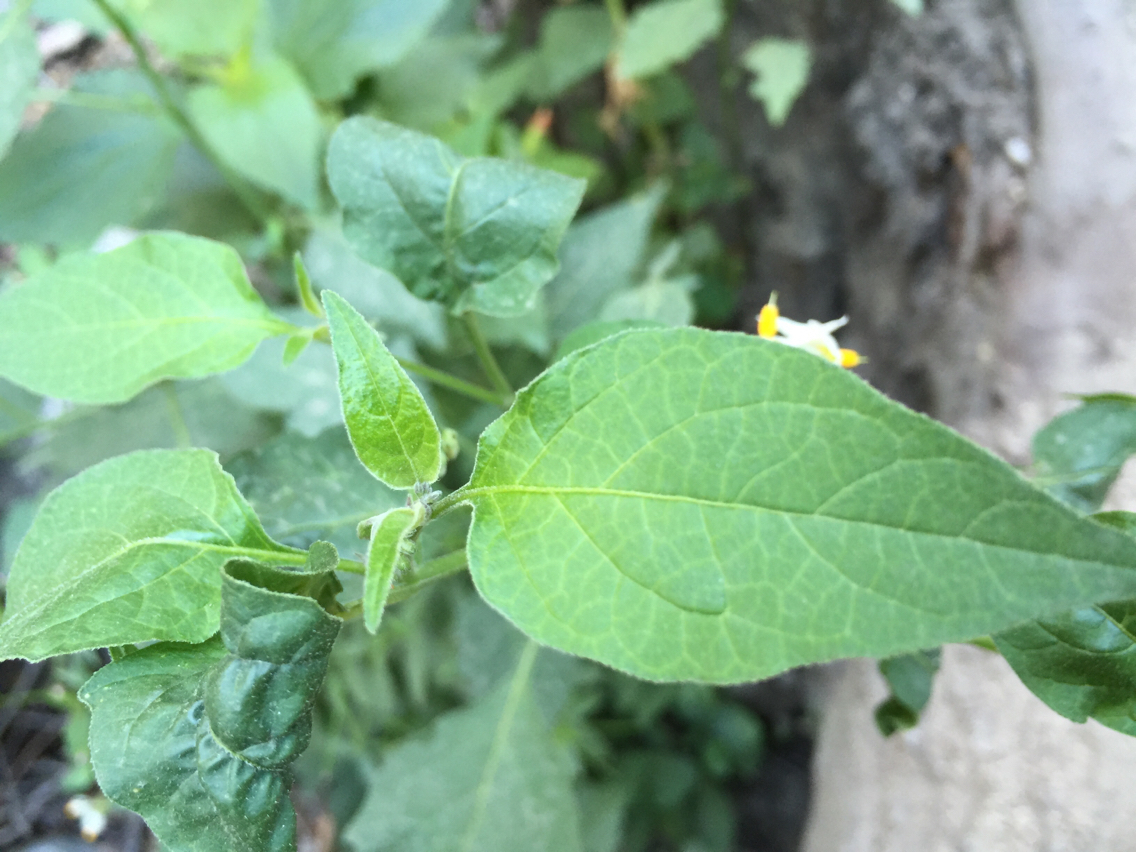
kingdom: Plantae
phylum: Tracheophyta
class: Magnoliopsida
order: Solanales
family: Solanaceae
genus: Solanum
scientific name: Solanum douglasii
